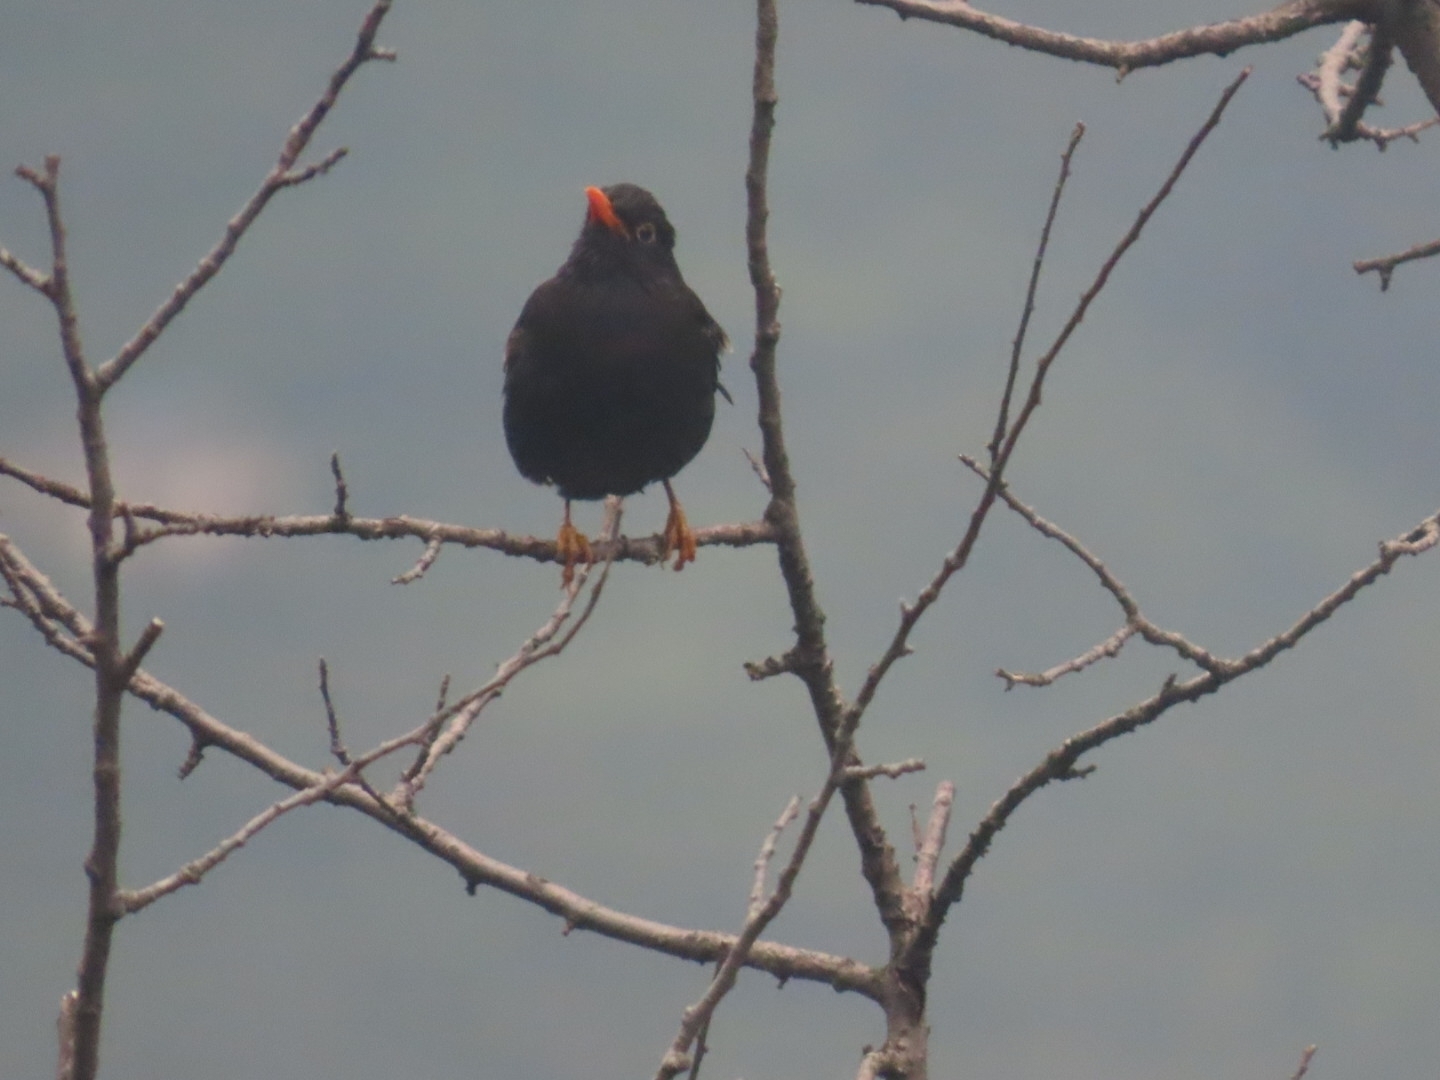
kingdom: Animalia
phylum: Chordata
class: Aves
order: Passeriformes
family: Turdidae
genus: Turdus
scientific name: Turdus boulboul
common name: Grey-winged blackbird
